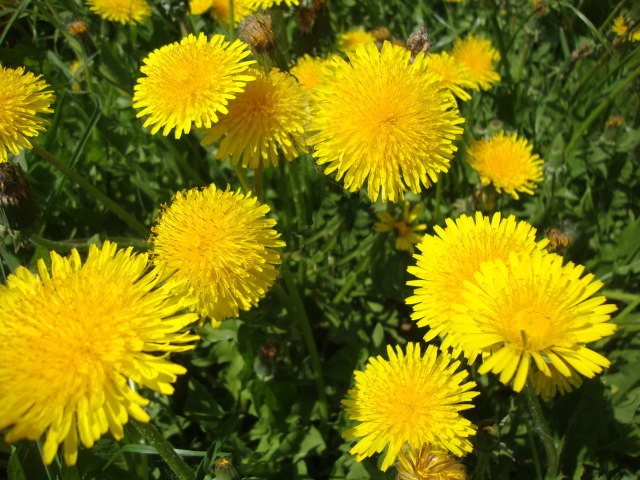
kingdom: Plantae
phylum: Tracheophyta
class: Magnoliopsida
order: Asterales
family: Asteraceae
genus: Taraxacum
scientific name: Taraxacum officinale
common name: Common dandelion
